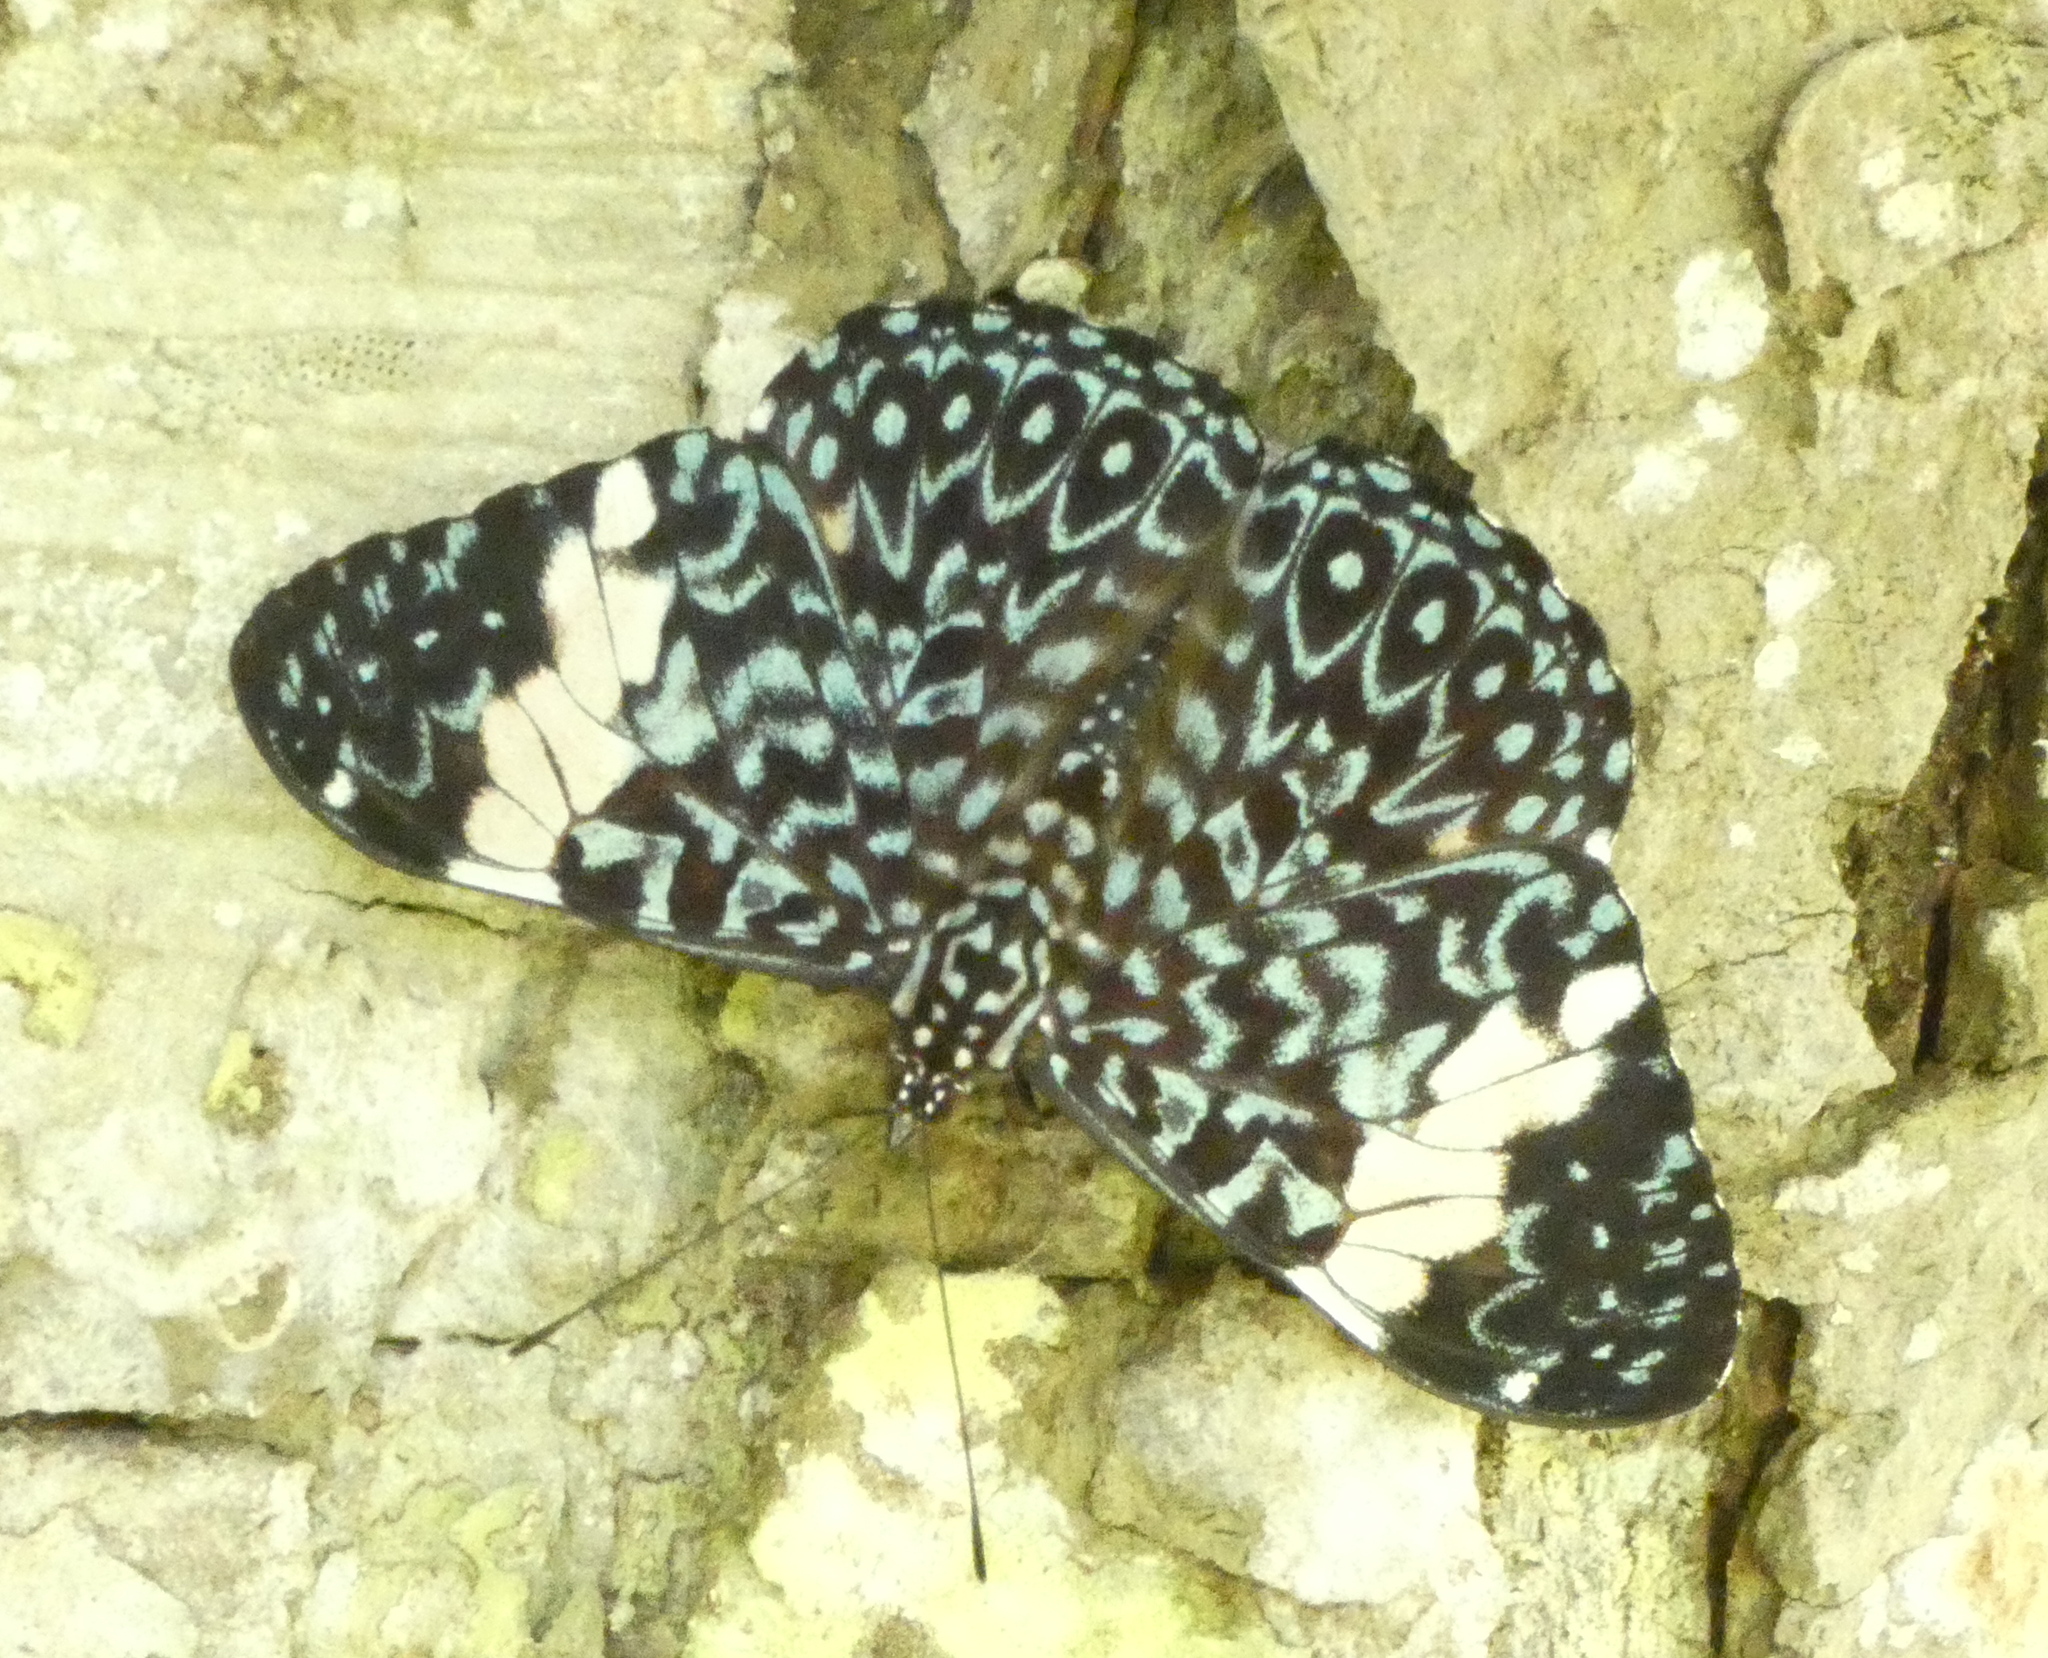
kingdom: Animalia
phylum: Arthropoda
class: Insecta
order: Lepidoptera
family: Nymphalidae
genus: Hamadryas
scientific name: Hamadryas amphinome
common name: Red cracker
